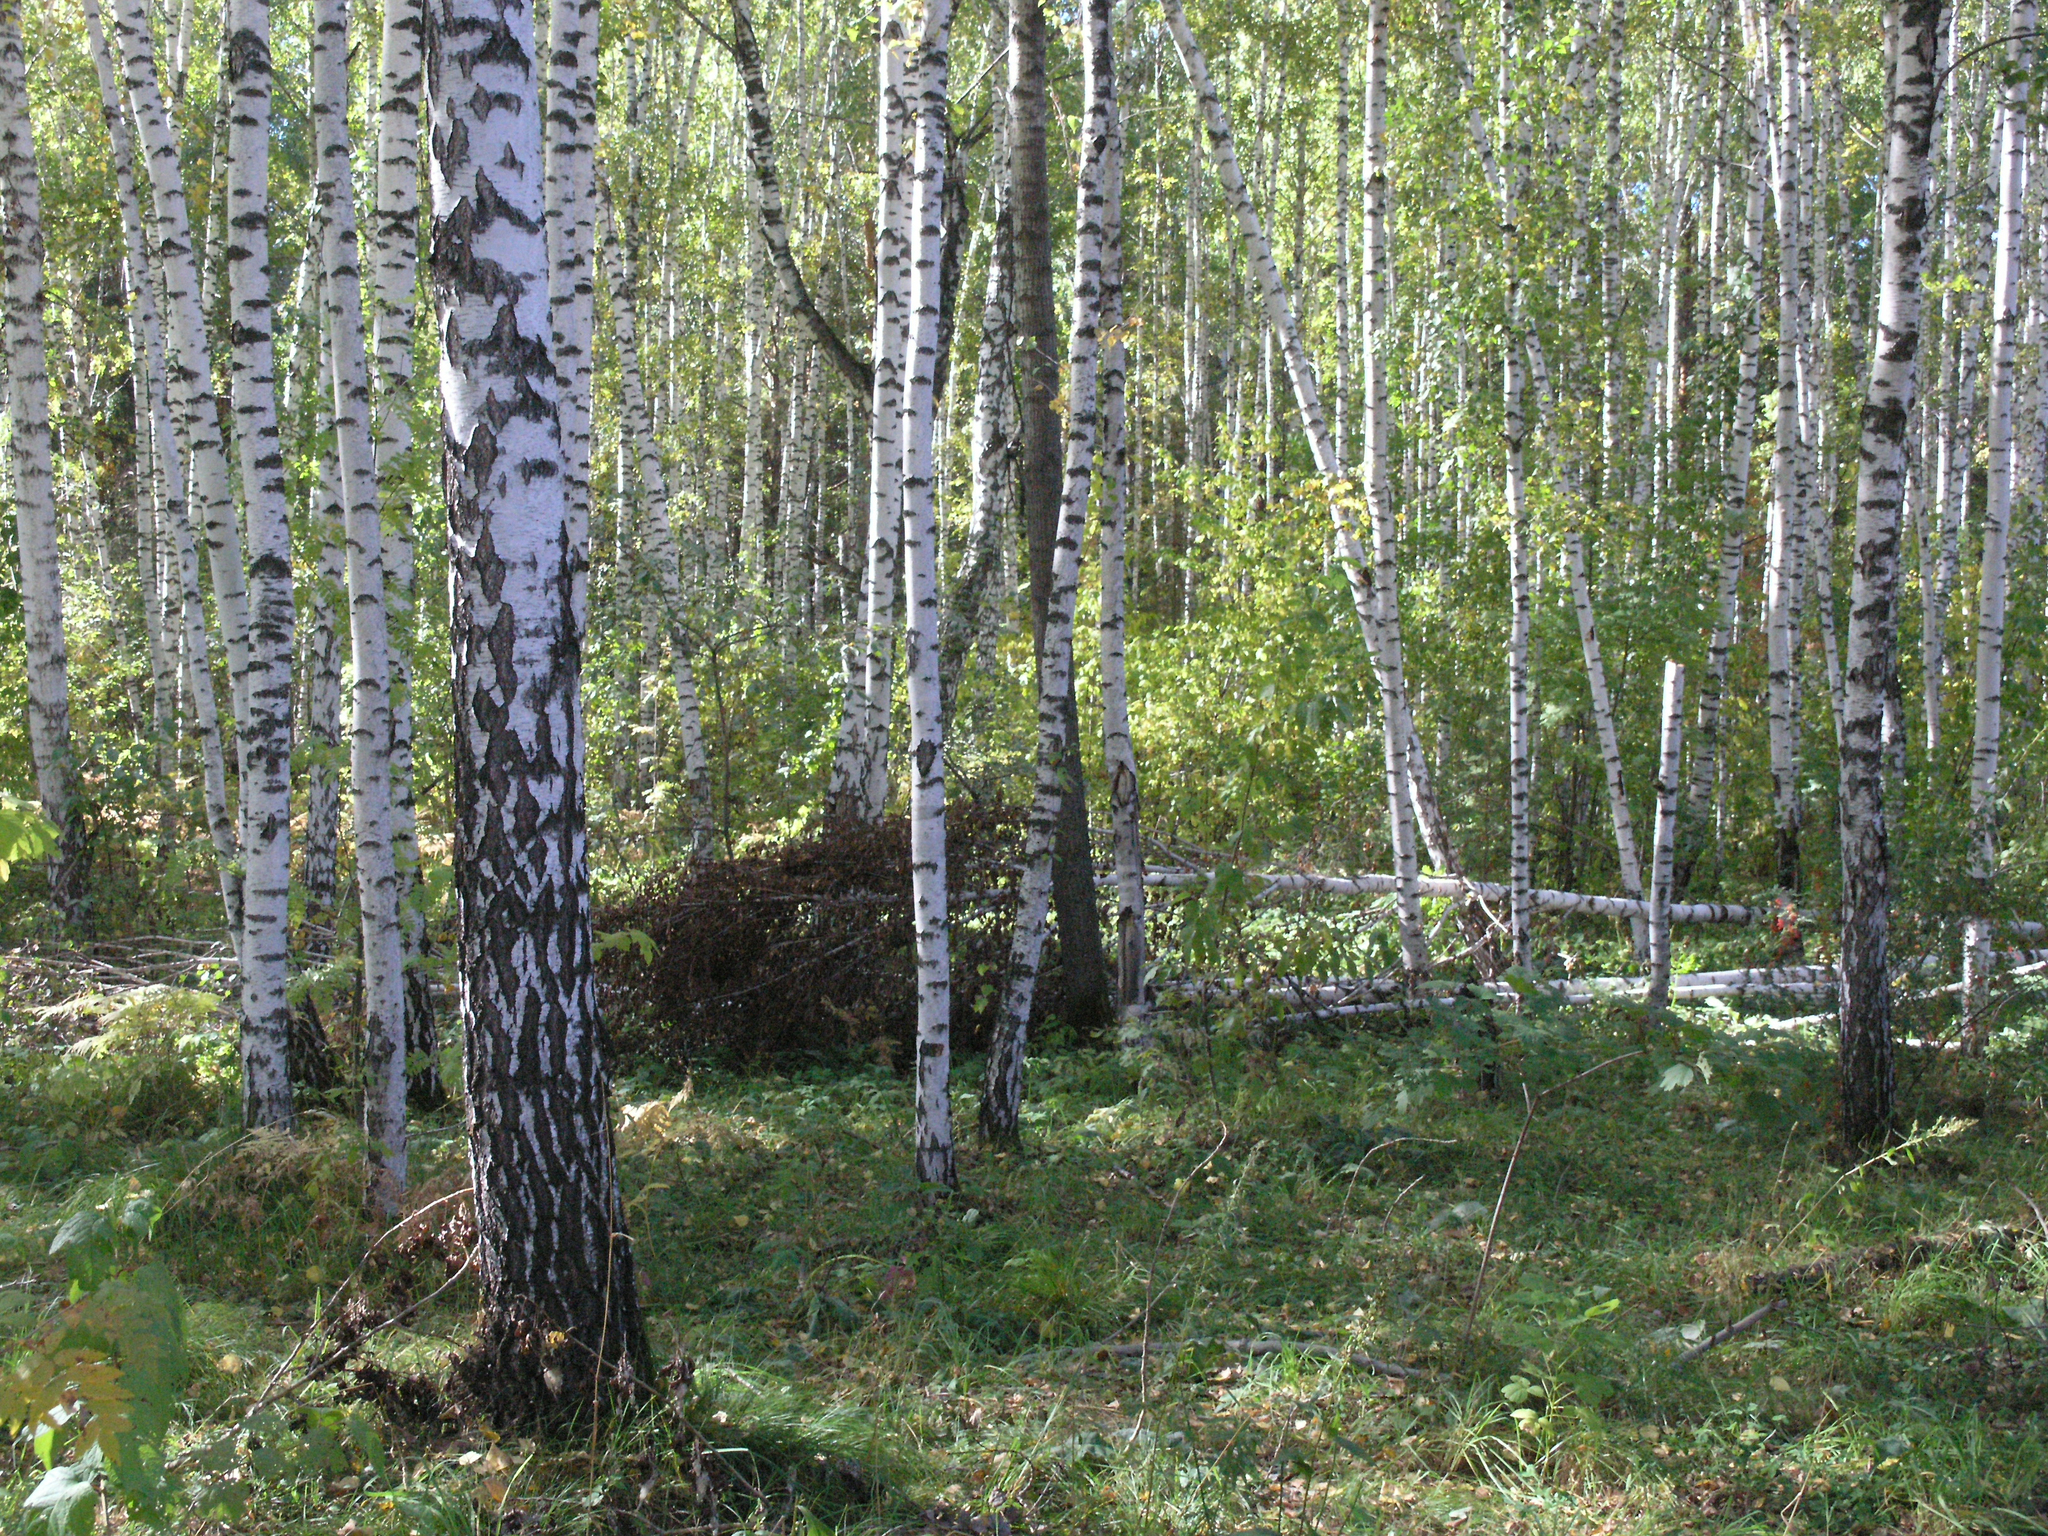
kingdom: Plantae
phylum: Tracheophyta
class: Magnoliopsida
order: Fagales
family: Betulaceae
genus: Betula
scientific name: Betula pendula
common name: Silver birch
